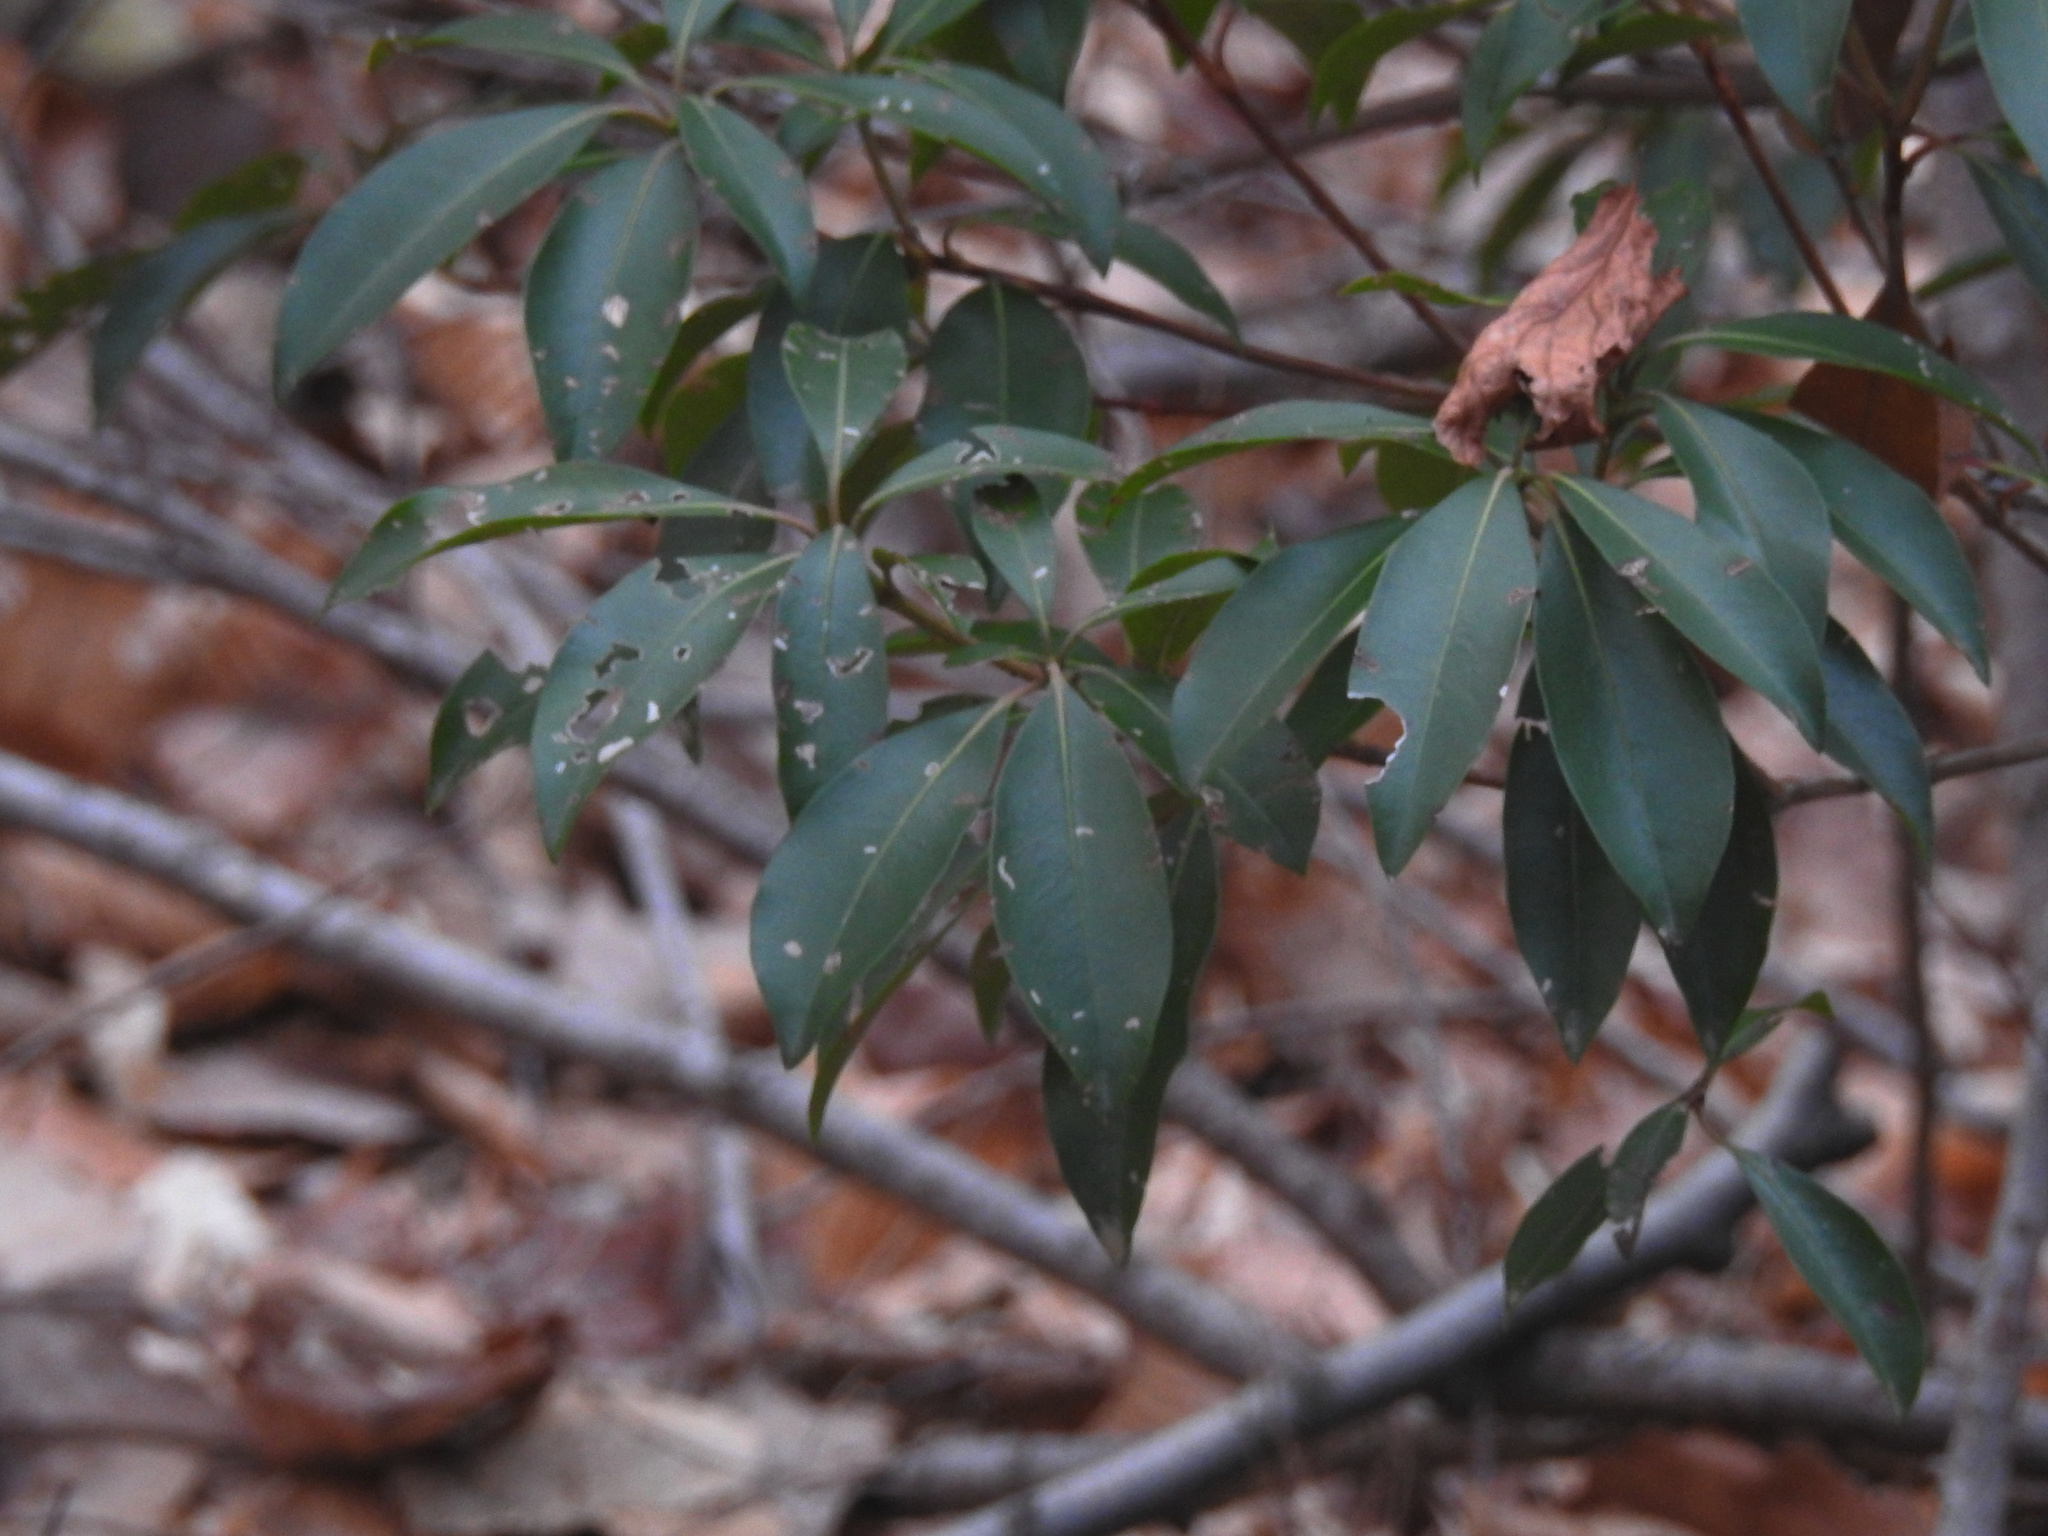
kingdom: Plantae
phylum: Tracheophyta
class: Magnoliopsida
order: Ericales
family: Ericaceae
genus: Kalmia
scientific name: Kalmia latifolia
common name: Mountain-laurel
